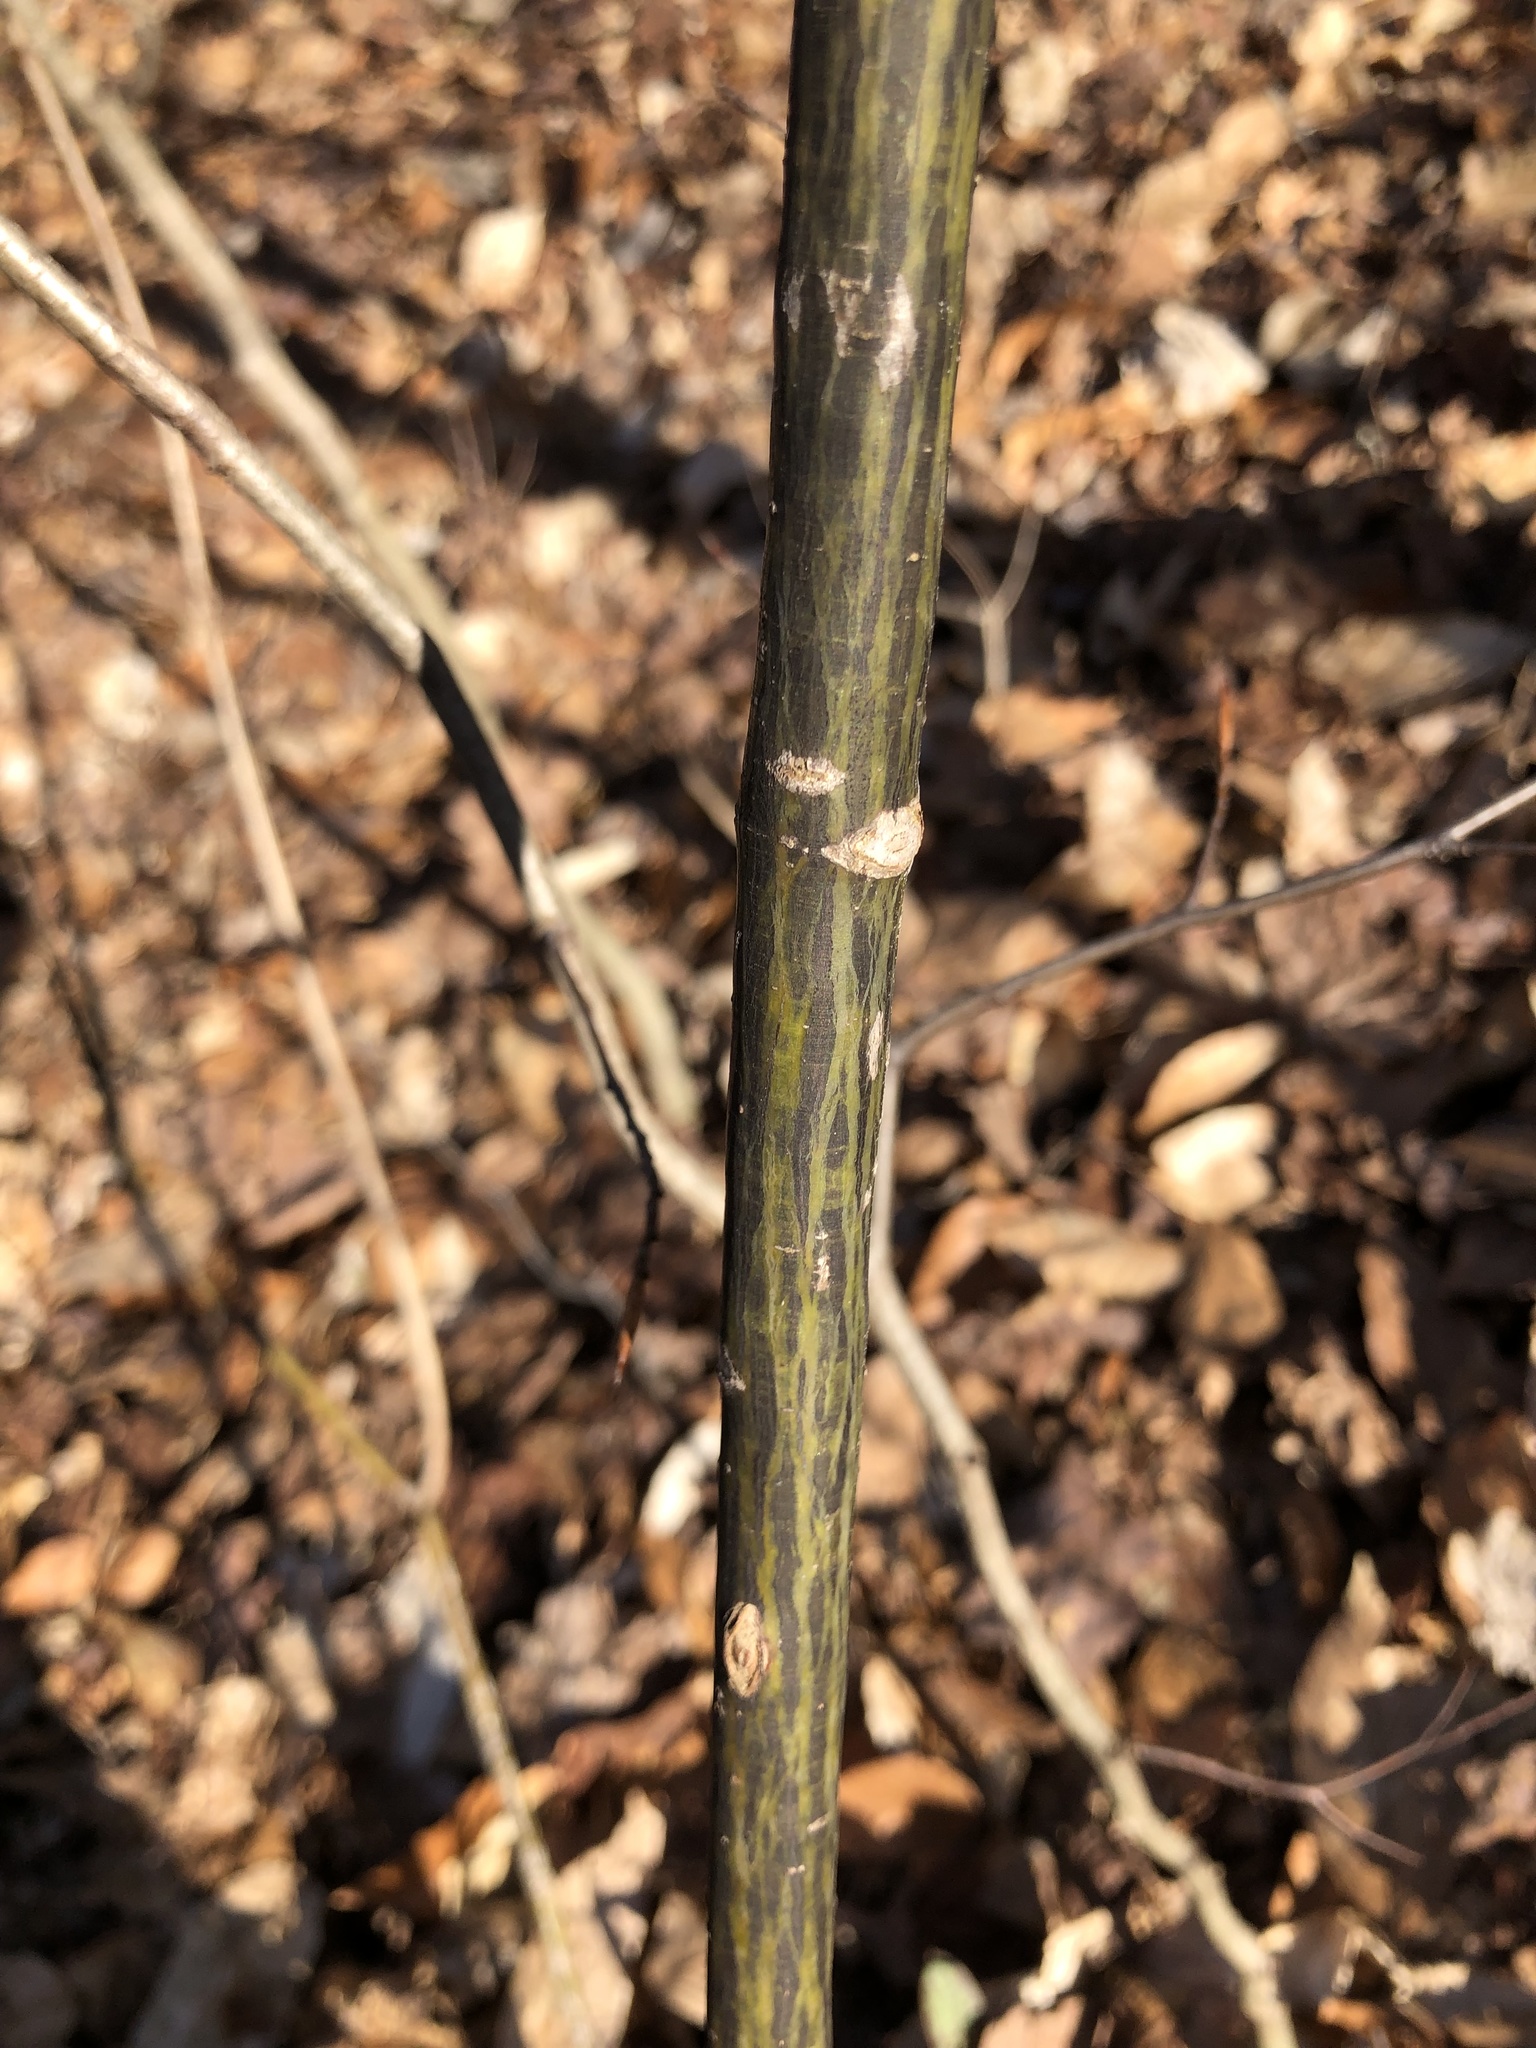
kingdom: Plantae
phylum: Tracheophyta
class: Magnoliopsida
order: Sapindales
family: Sapindaceae
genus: Acer
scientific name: Acer pensylvanicum
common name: Moosewood
